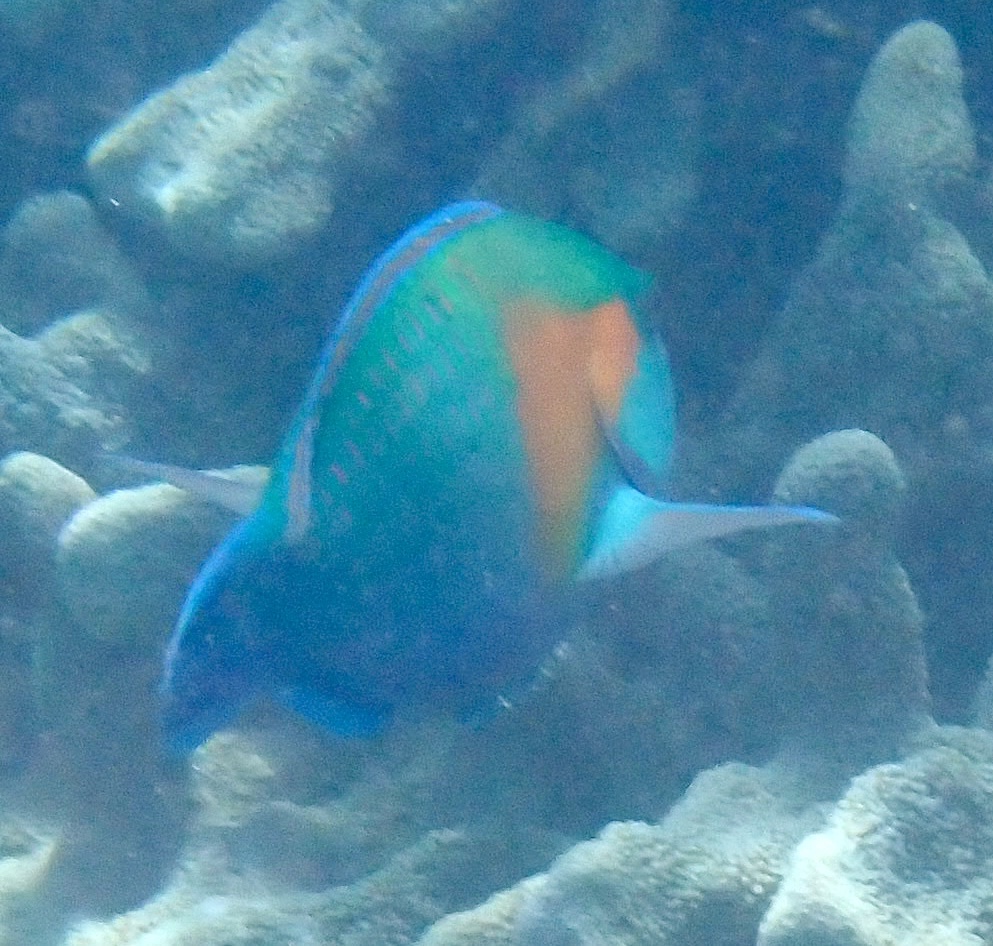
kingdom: Animalia
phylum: Chordata
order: Perciformes
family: Scaridae
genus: Chlorurus
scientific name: Chlorurus bowersi
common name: Bower's parrotfish
